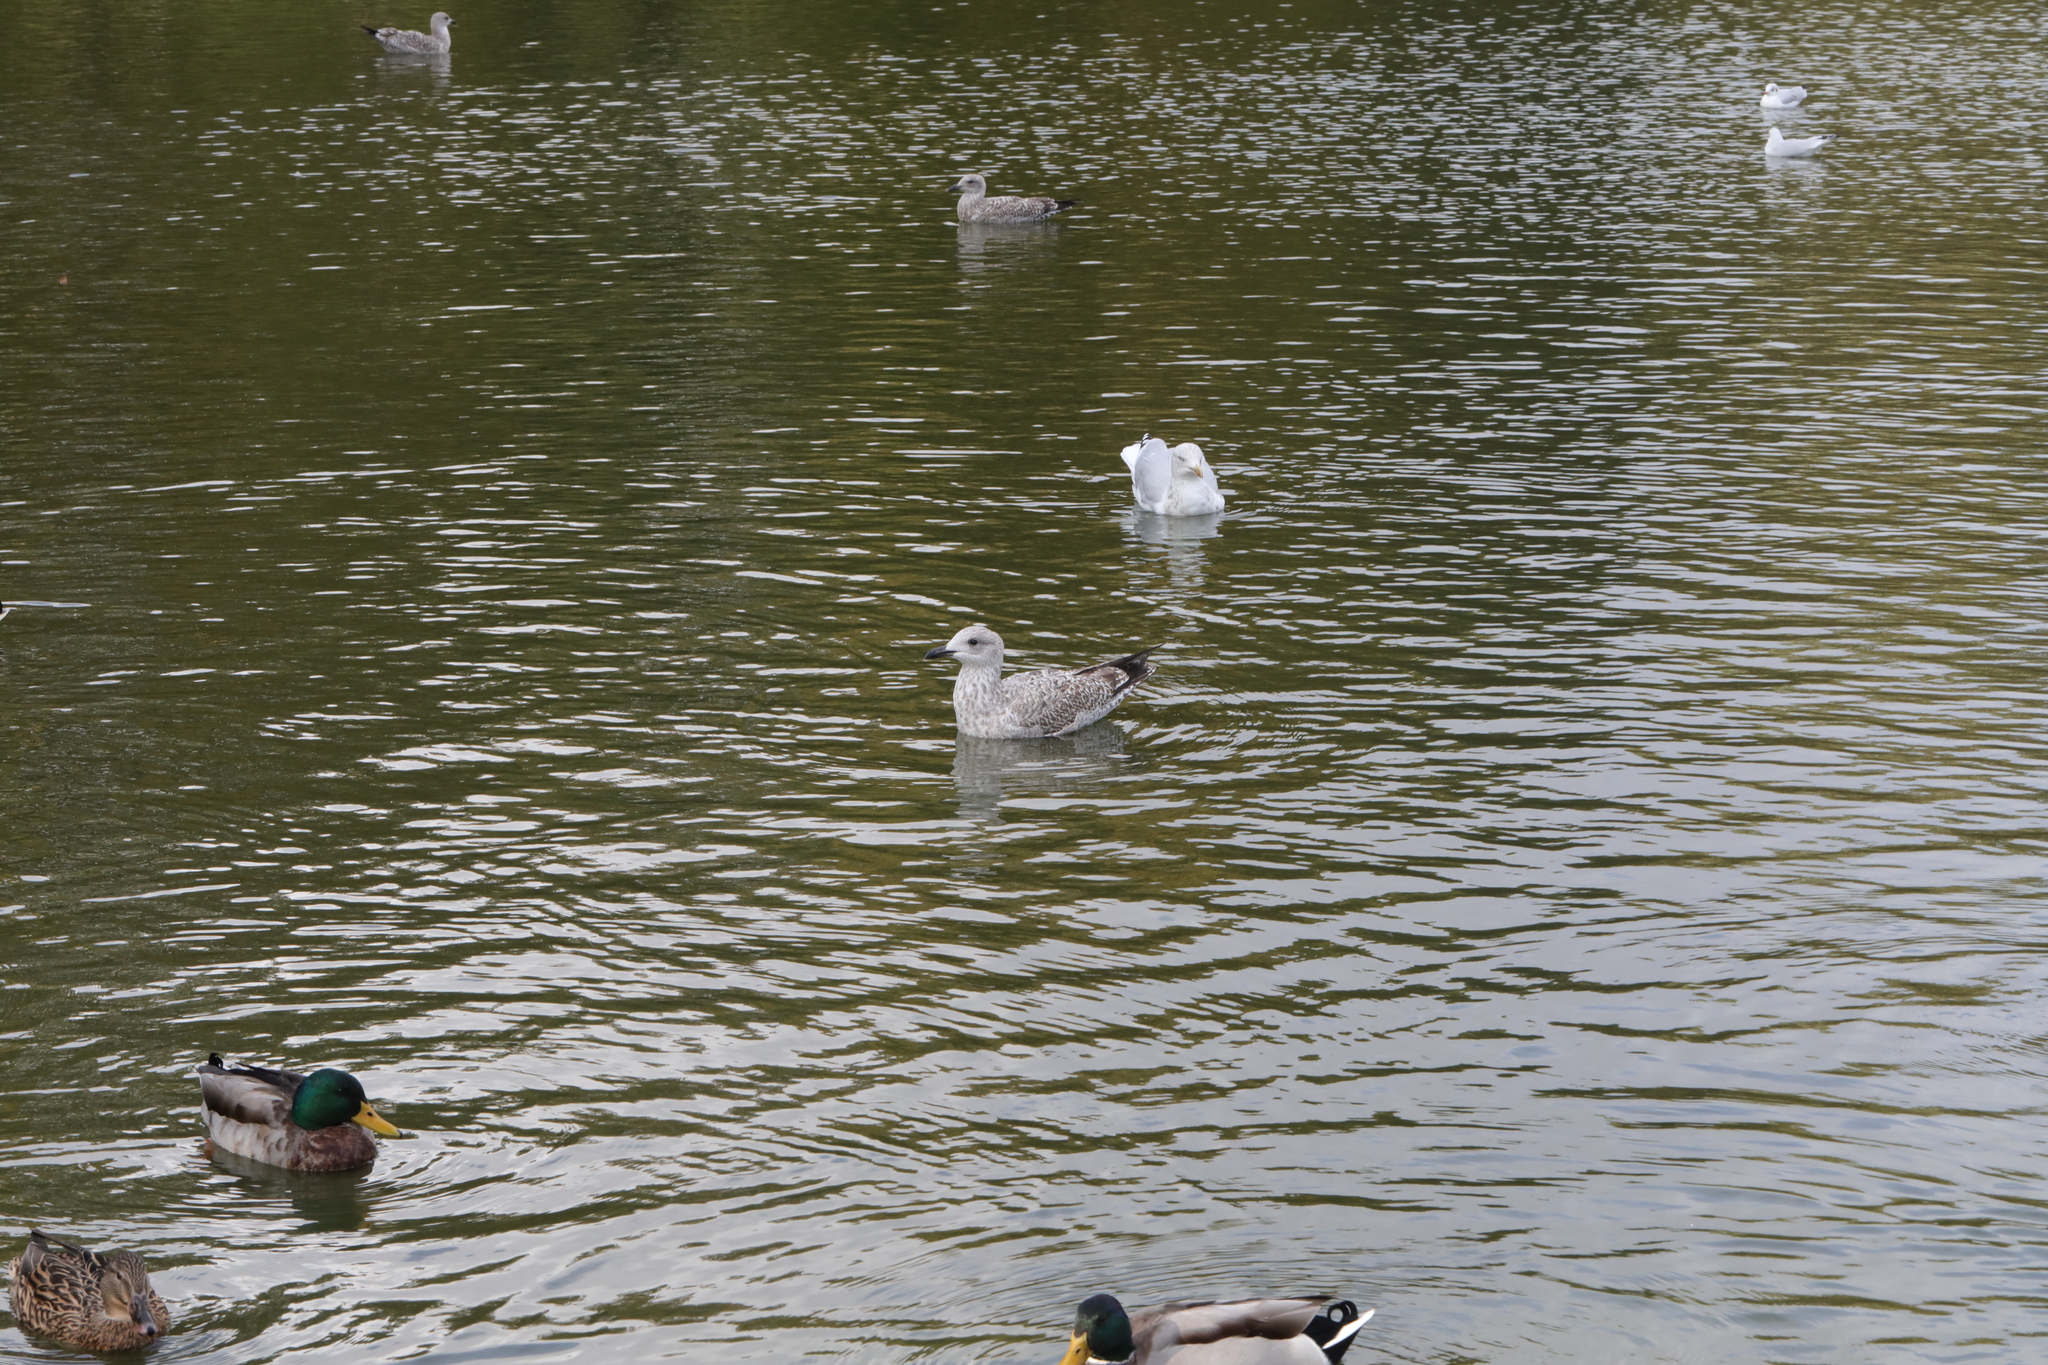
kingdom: Animalia
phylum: Chordata
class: Aves
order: Charadriiformes
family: Laridae
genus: Larus
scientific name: Larus argentatus
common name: Herring gull
